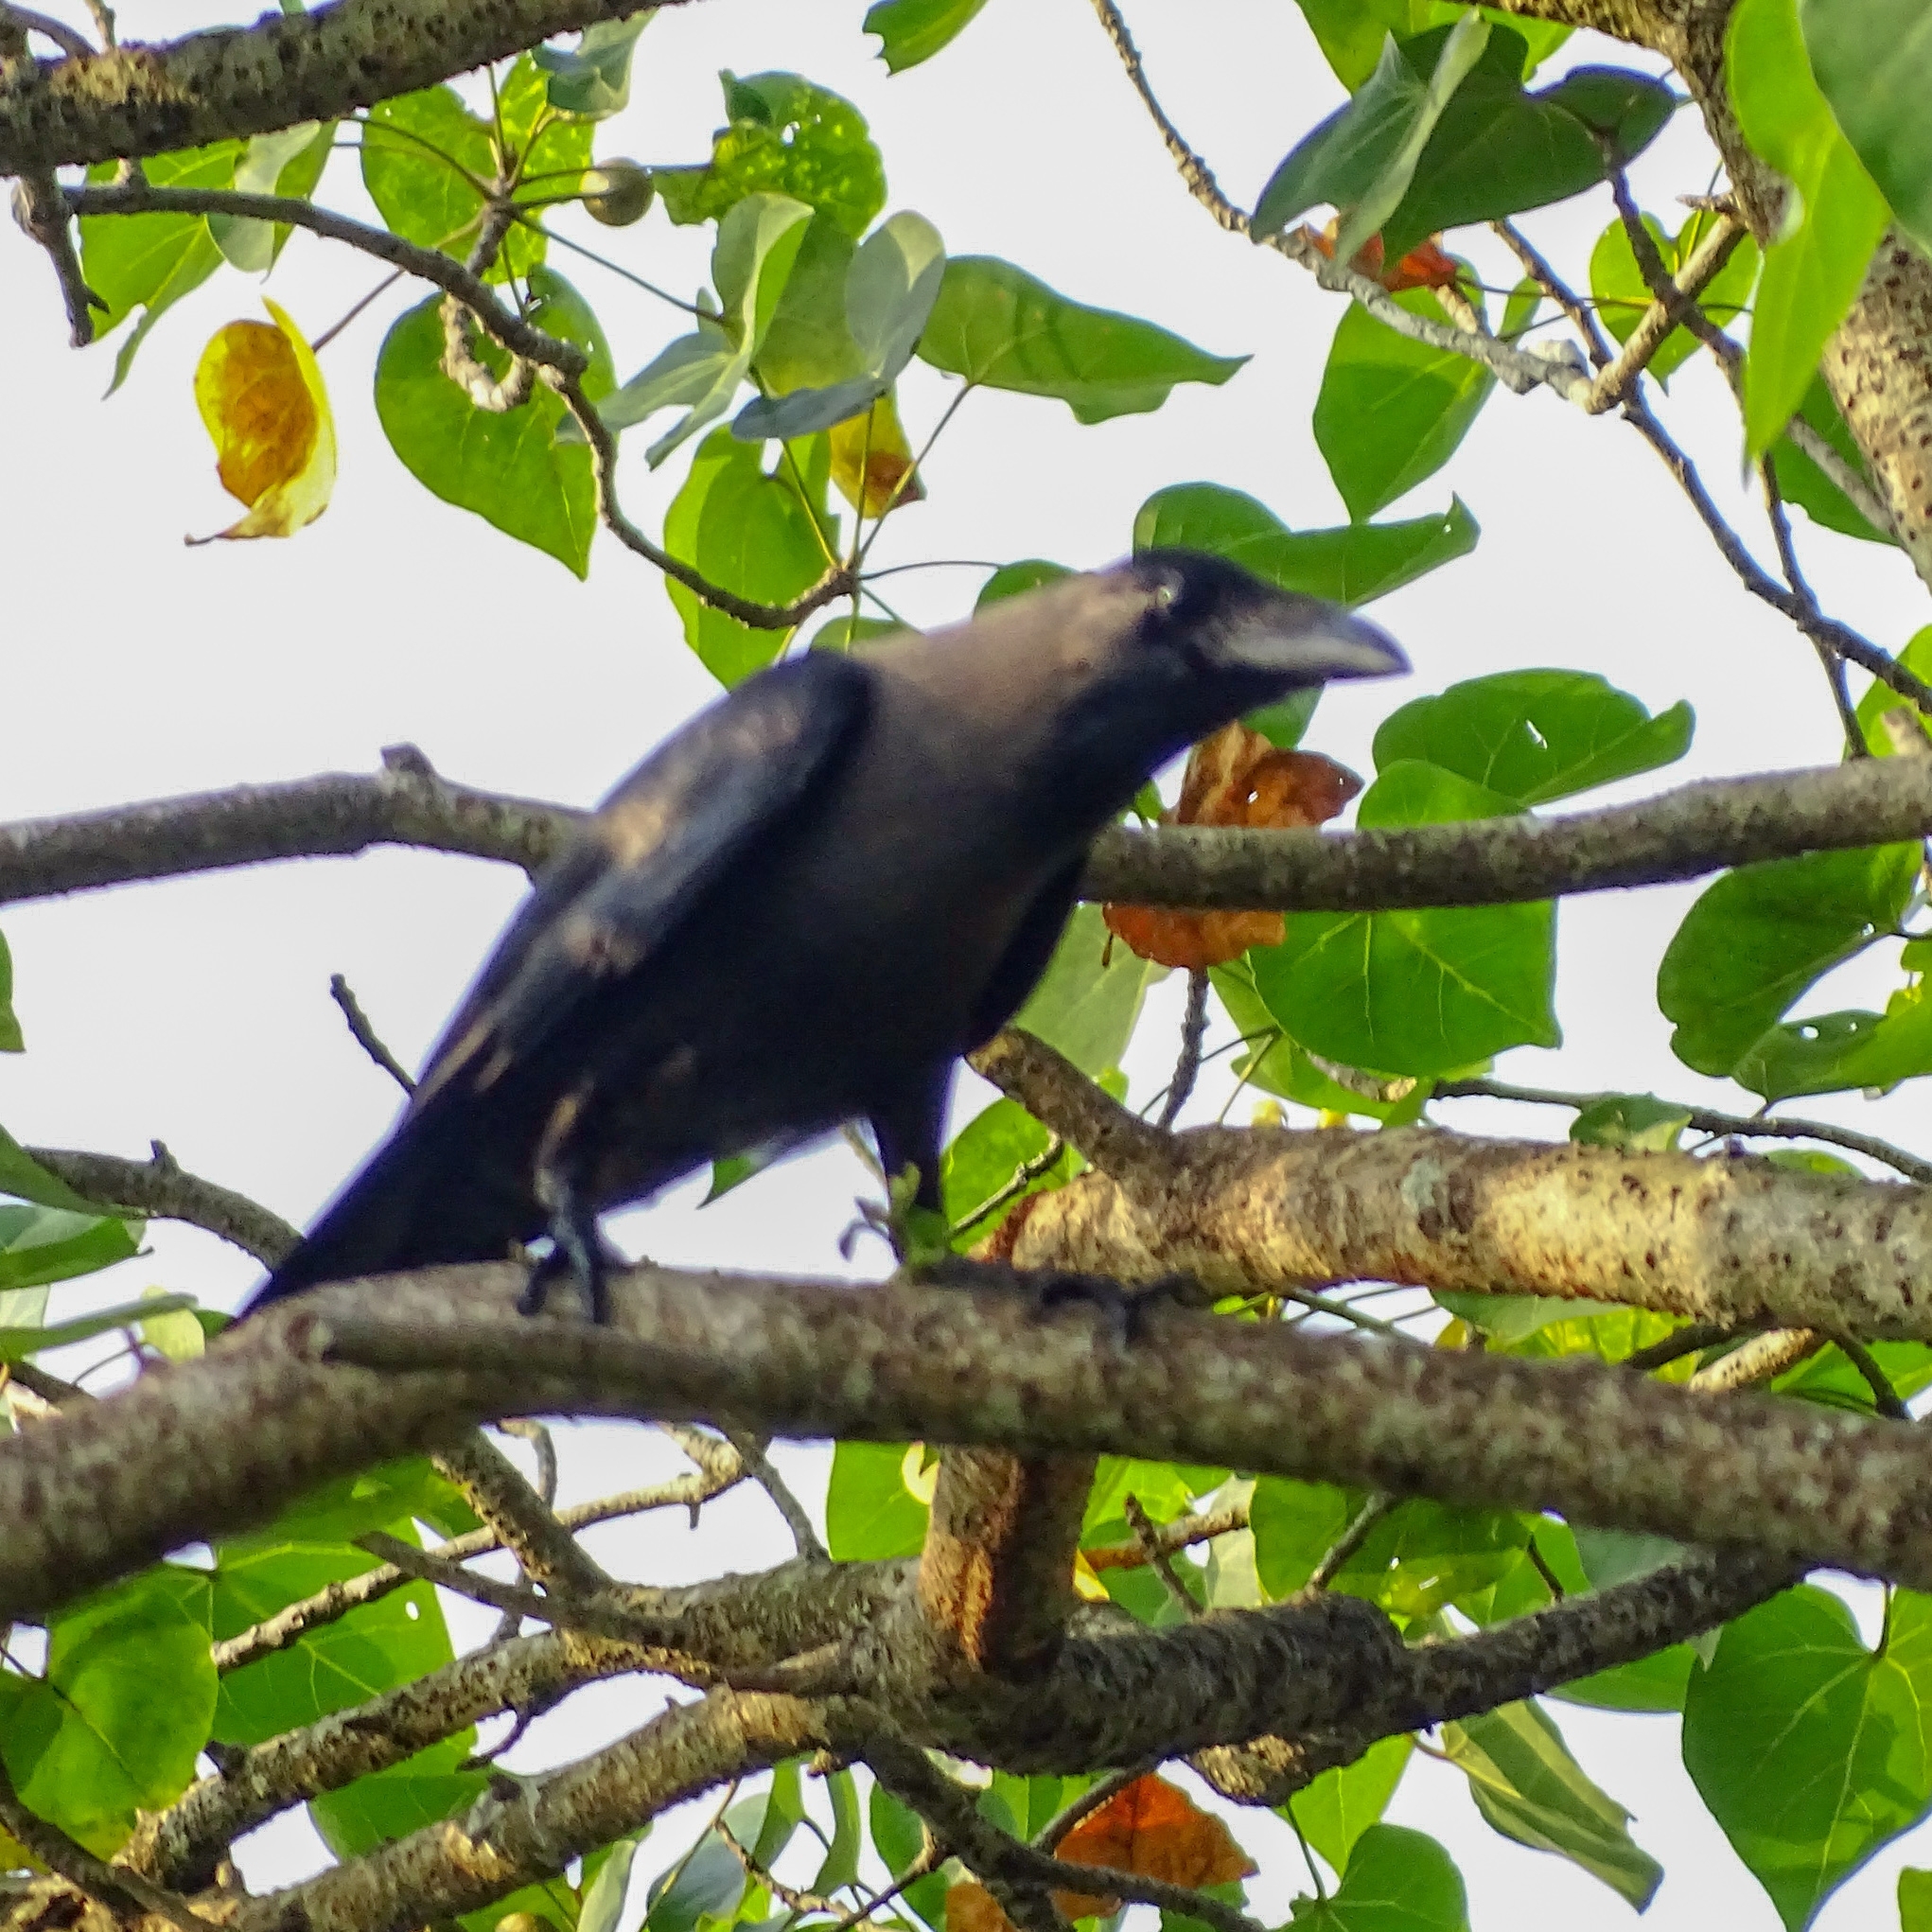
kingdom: Animalia
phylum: Chordata
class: Aves
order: Passeriformes
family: Corvidae
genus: Corvus
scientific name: Corvus splendens
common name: House crow
